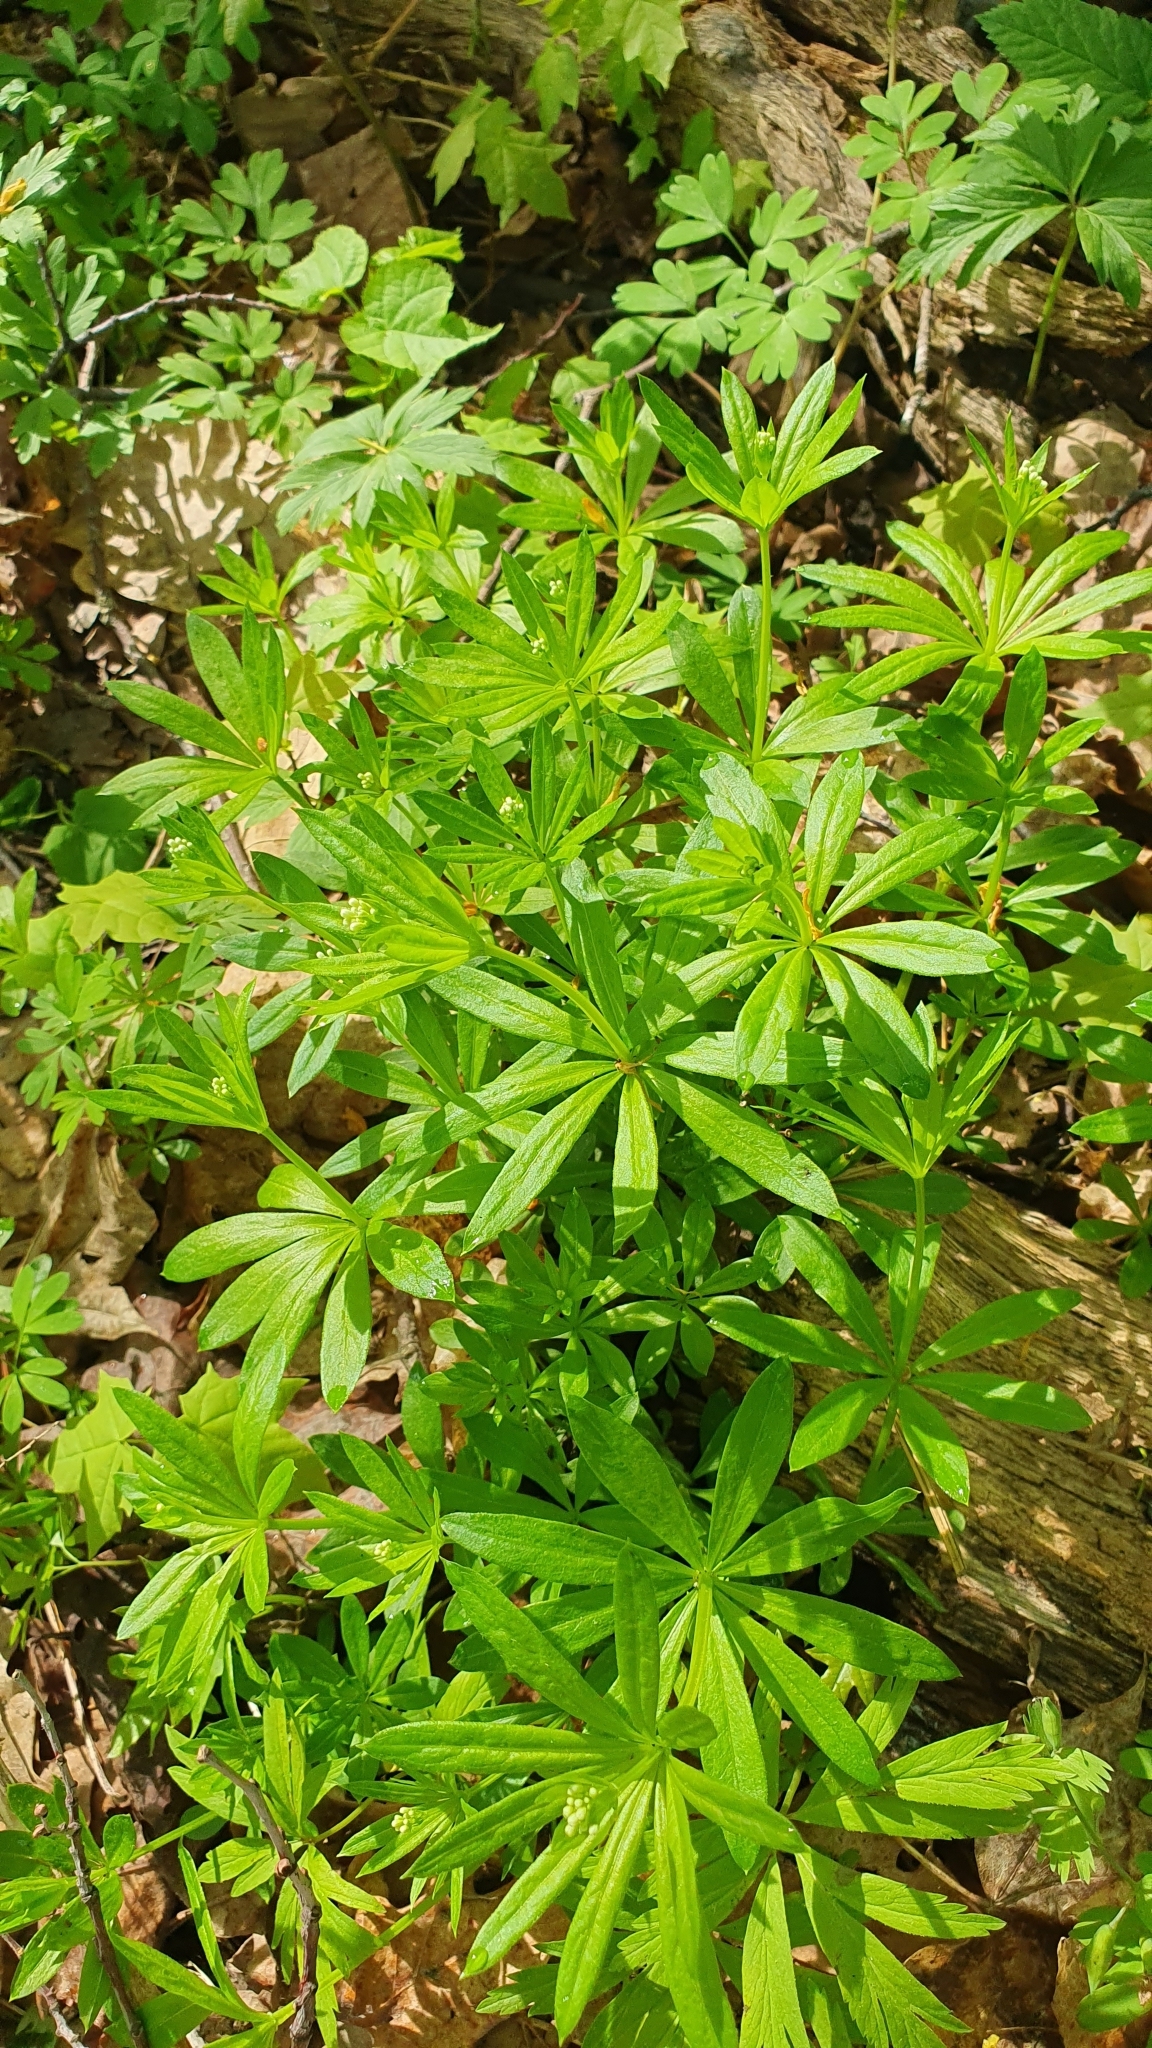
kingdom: Plantae
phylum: Tracheophyta
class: Magnoliopsida
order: Gentianales
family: Rubiaceae
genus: Galium
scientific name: Galium odoratum
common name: Sweet woodruff
